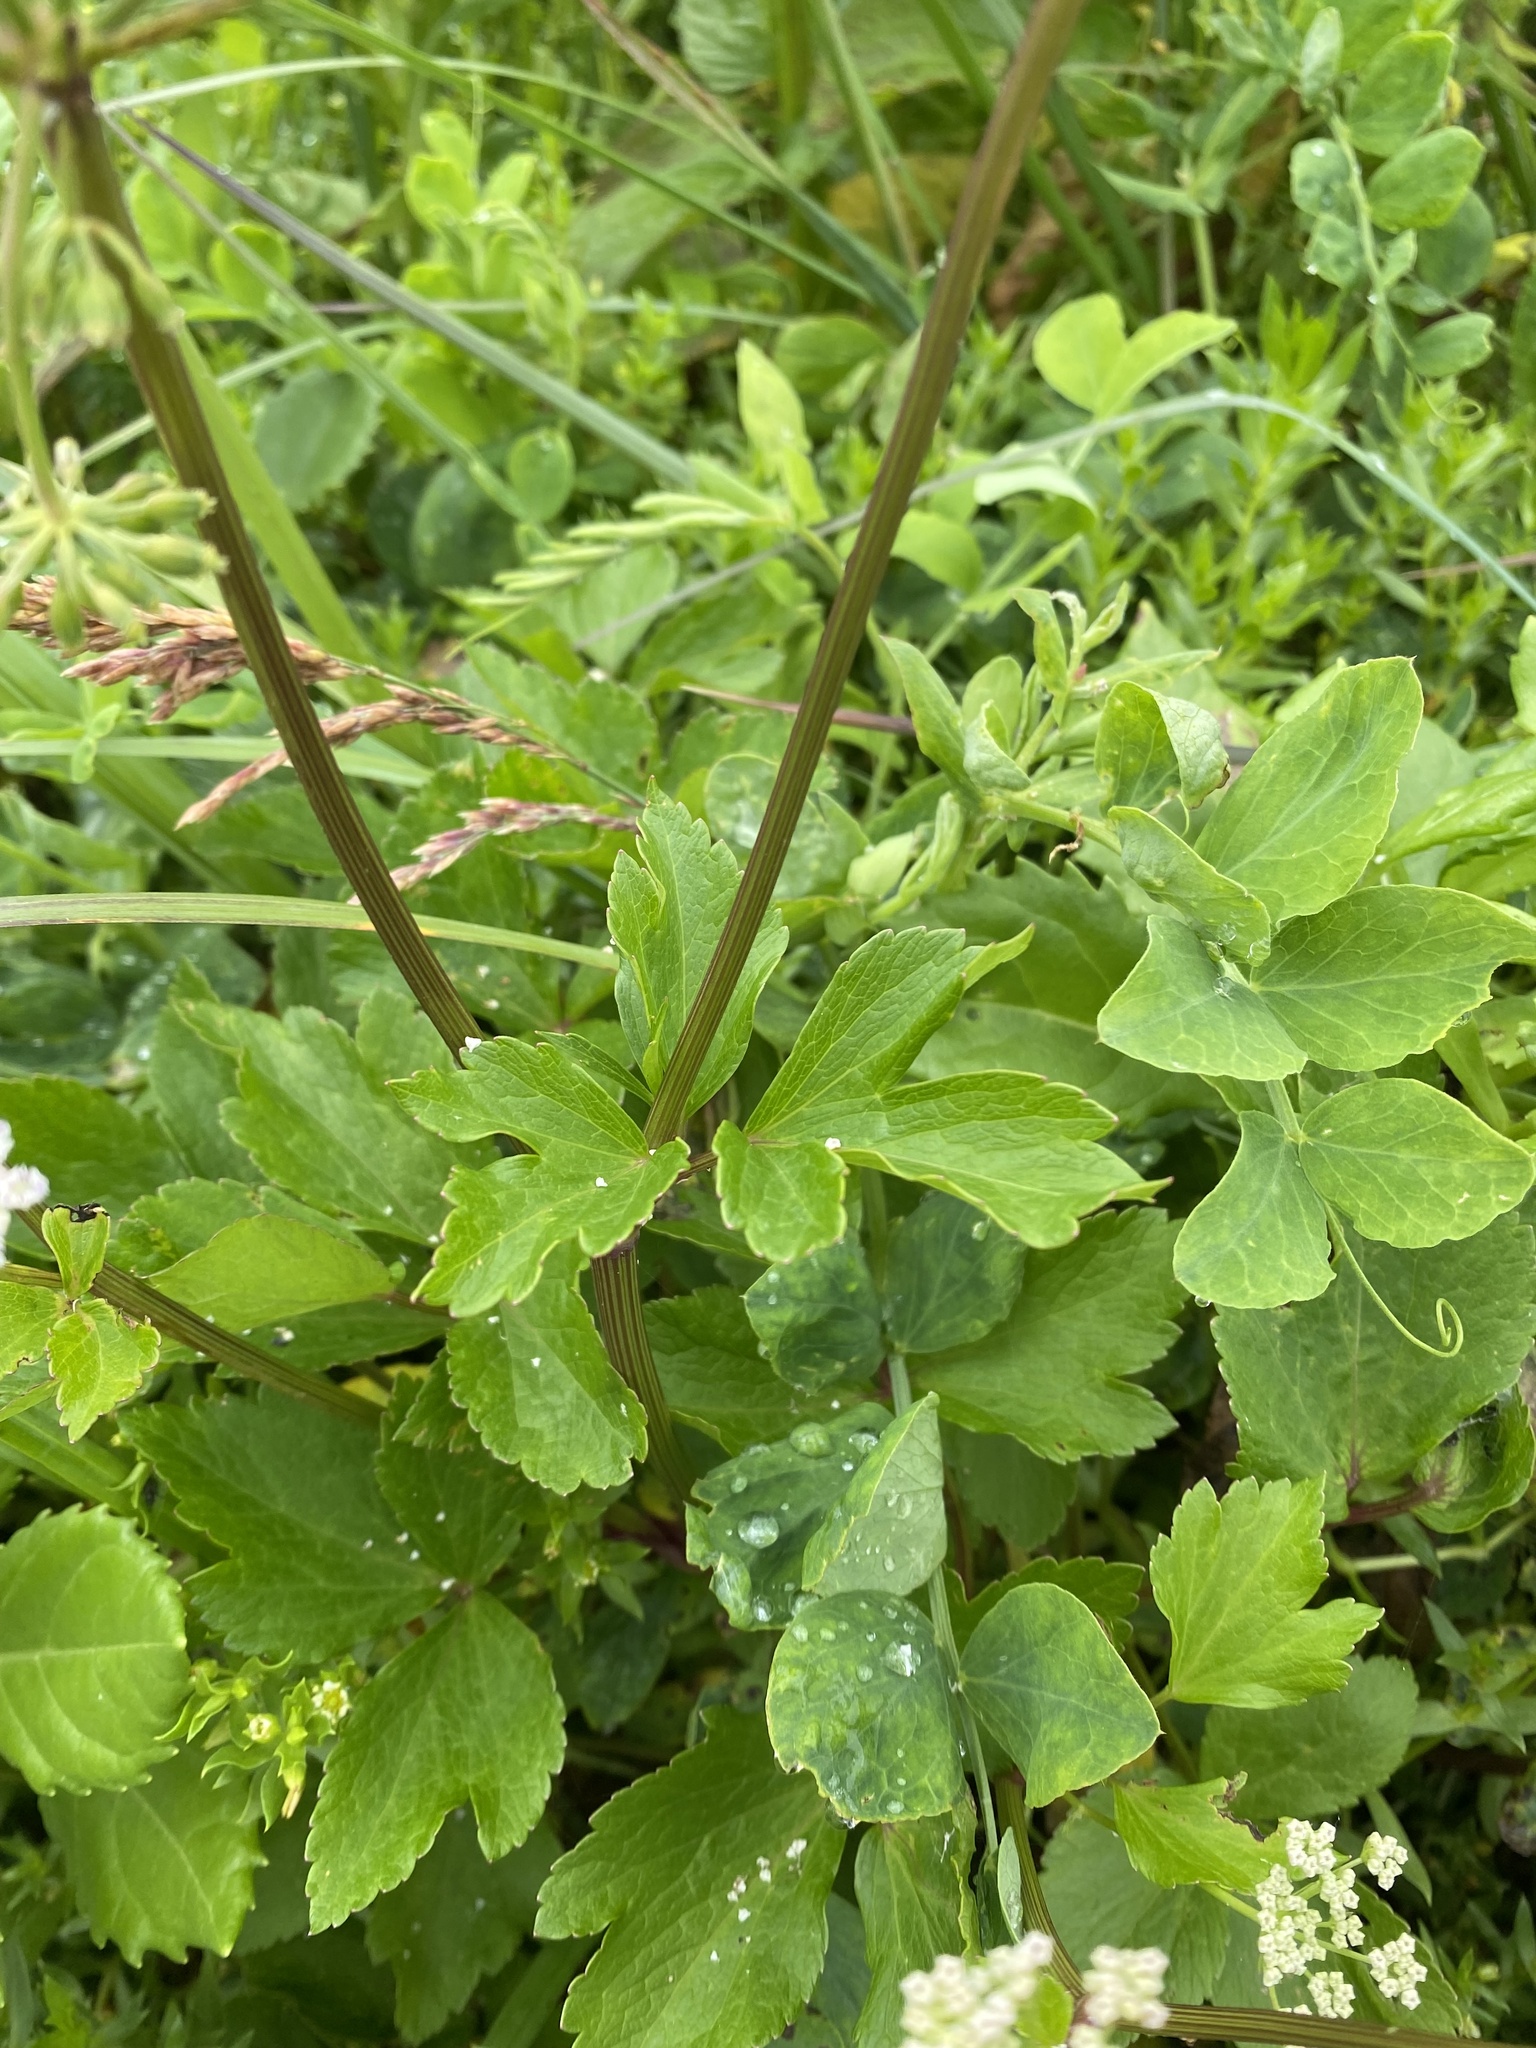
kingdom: Plantae
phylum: Tracheophyta
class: Magnoliopsida
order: Apiales
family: Apiaceae
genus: Ligusticum
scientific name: Ligusticum scothicum
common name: Beach lovage
